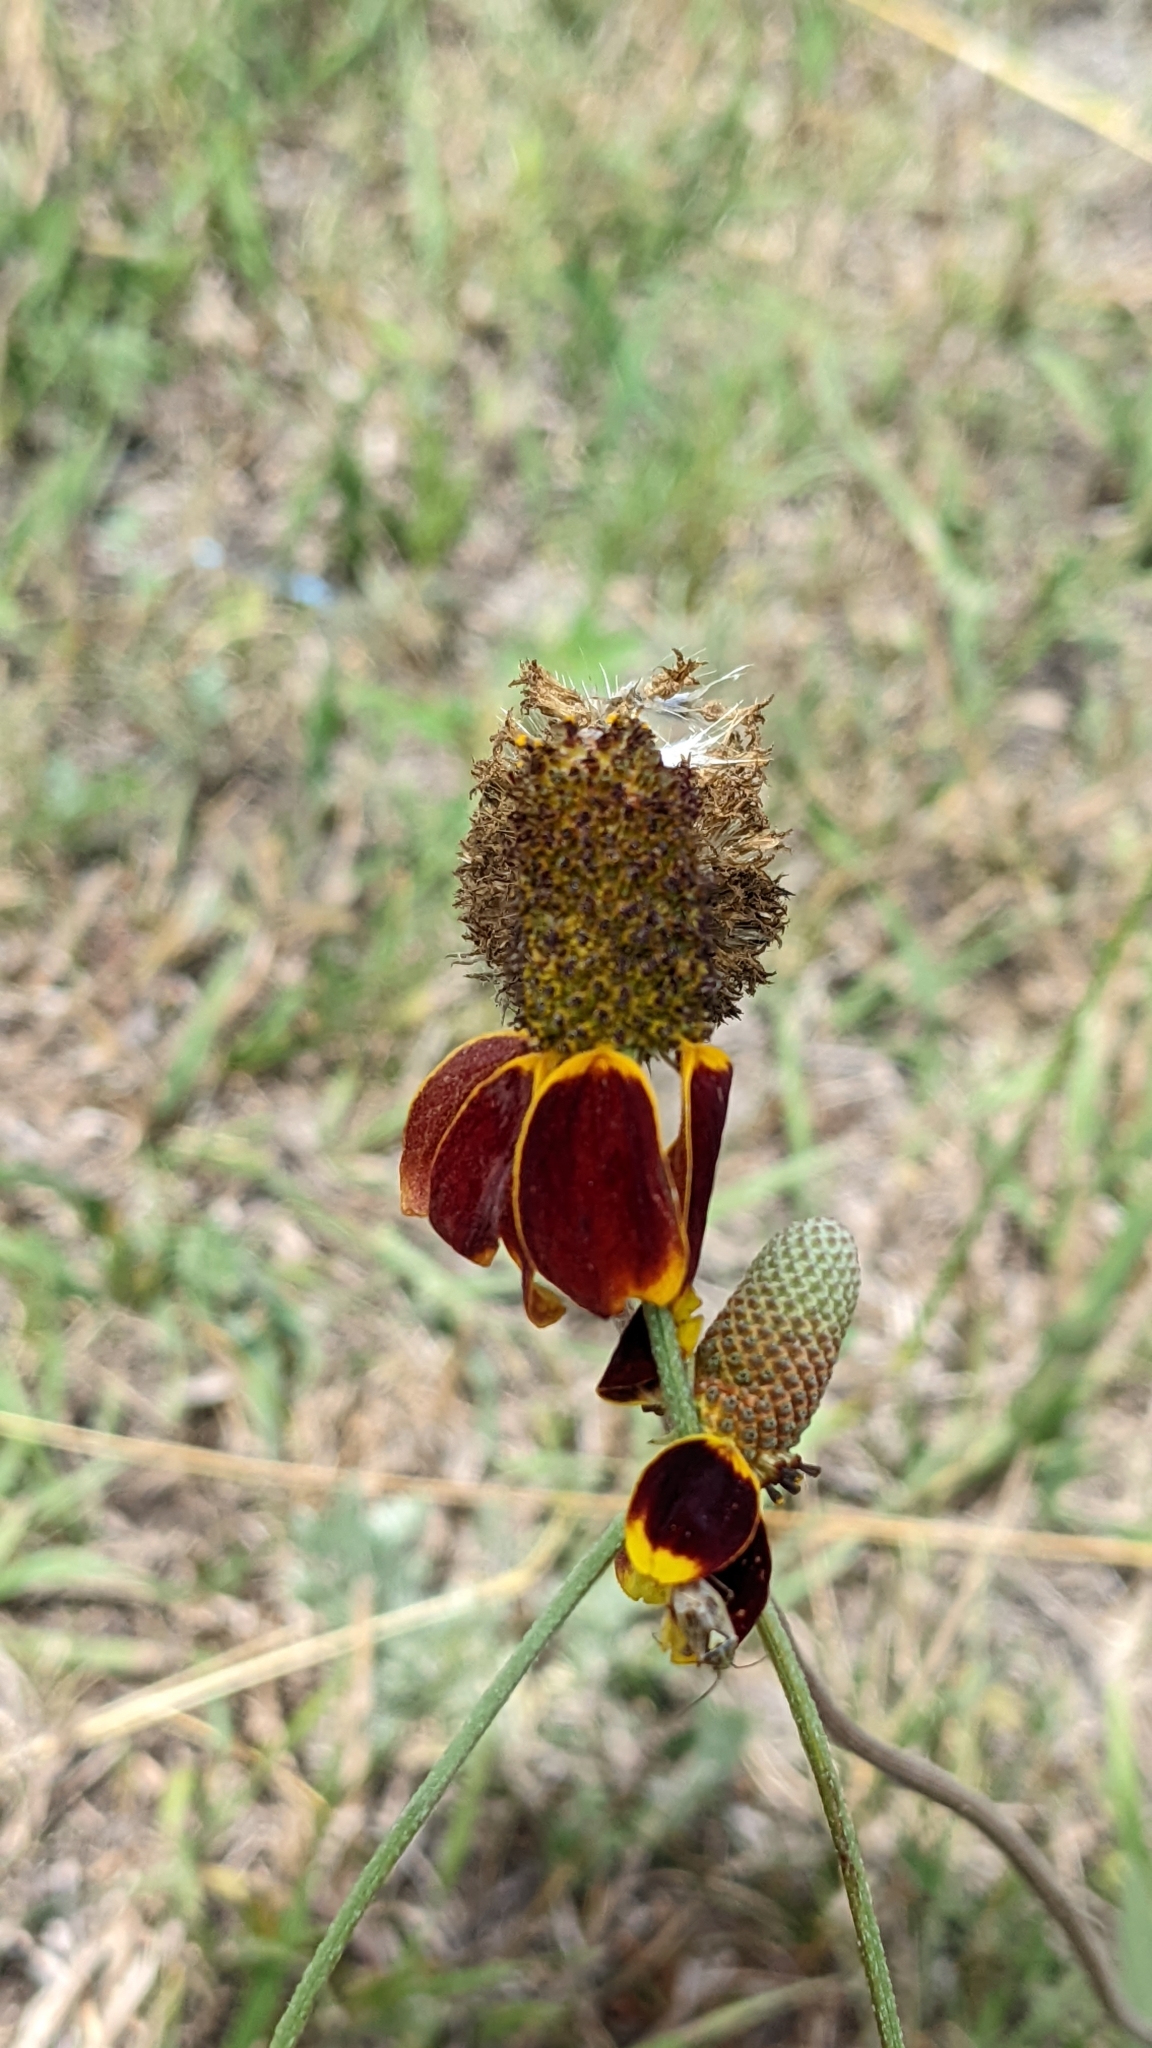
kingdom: Plantae
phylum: Tracheophyta
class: Magnoliopsida
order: Asterales
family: Asteraceae
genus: Ratibida
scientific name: Ratibida columnifera
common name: Prairie coneflower
